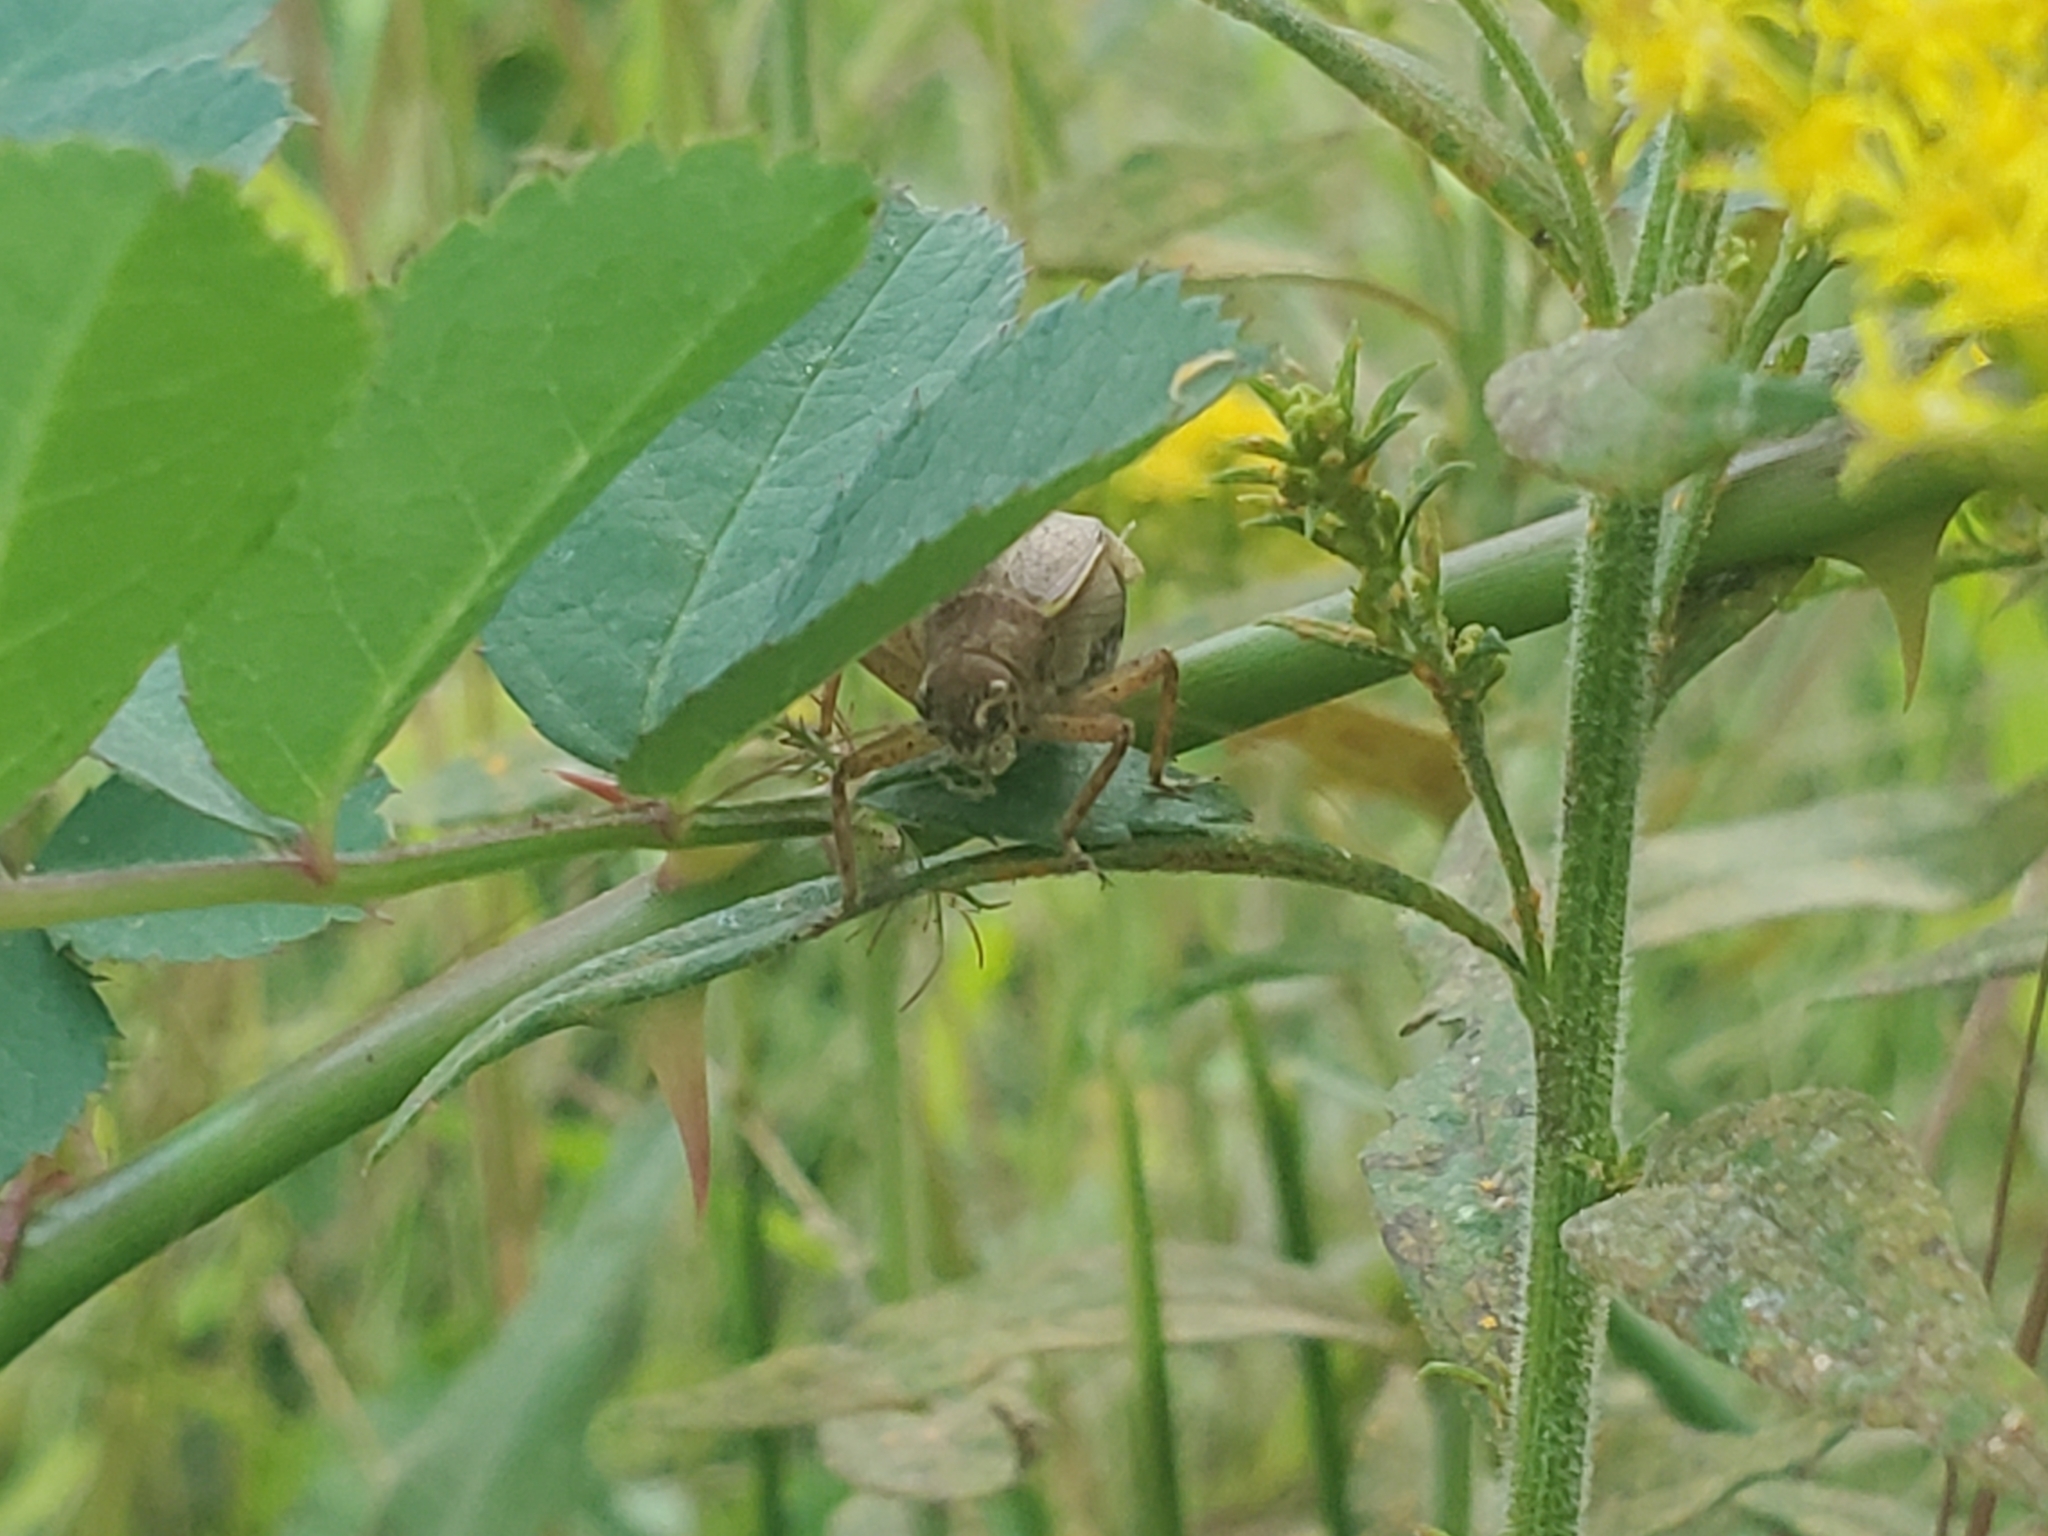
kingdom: Animalia
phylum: Arthropoda
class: Insecta
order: Orthoptera
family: Gryllidae
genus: Hapithus
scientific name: Hapithus agitator
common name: Restless bush cricket
